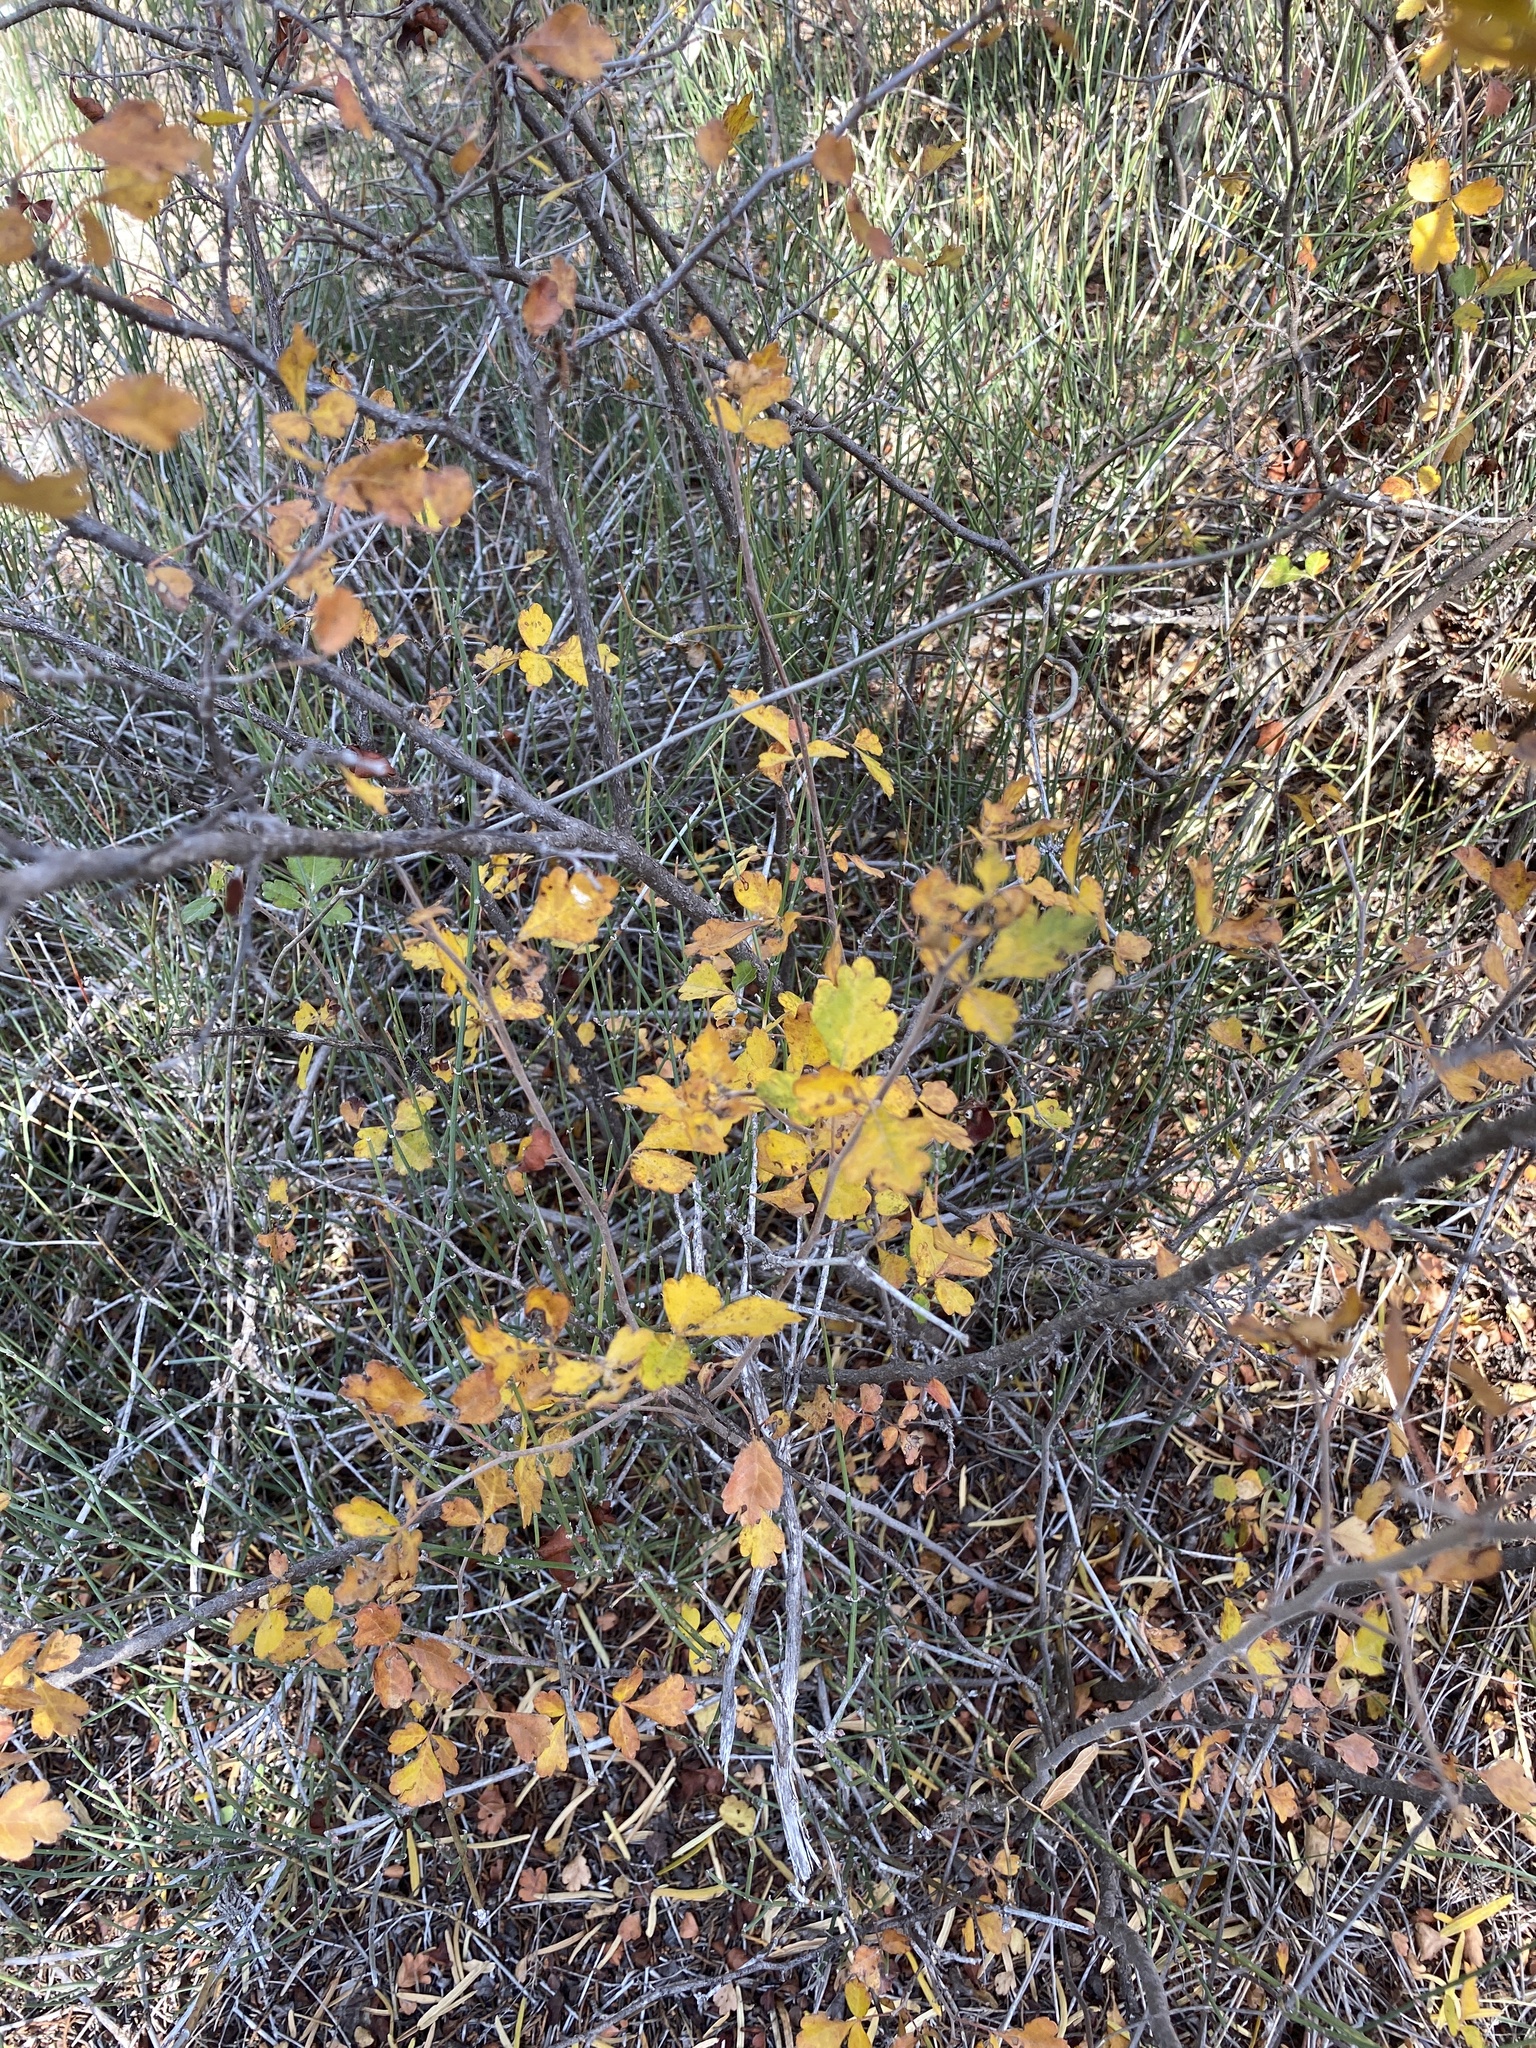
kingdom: Plantae
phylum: Tracheophyta
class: Magnoliopsida
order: Sapindales
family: Anacardiaceae
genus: Rhus
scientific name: Rhus aromatica
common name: Aromatic sumac
